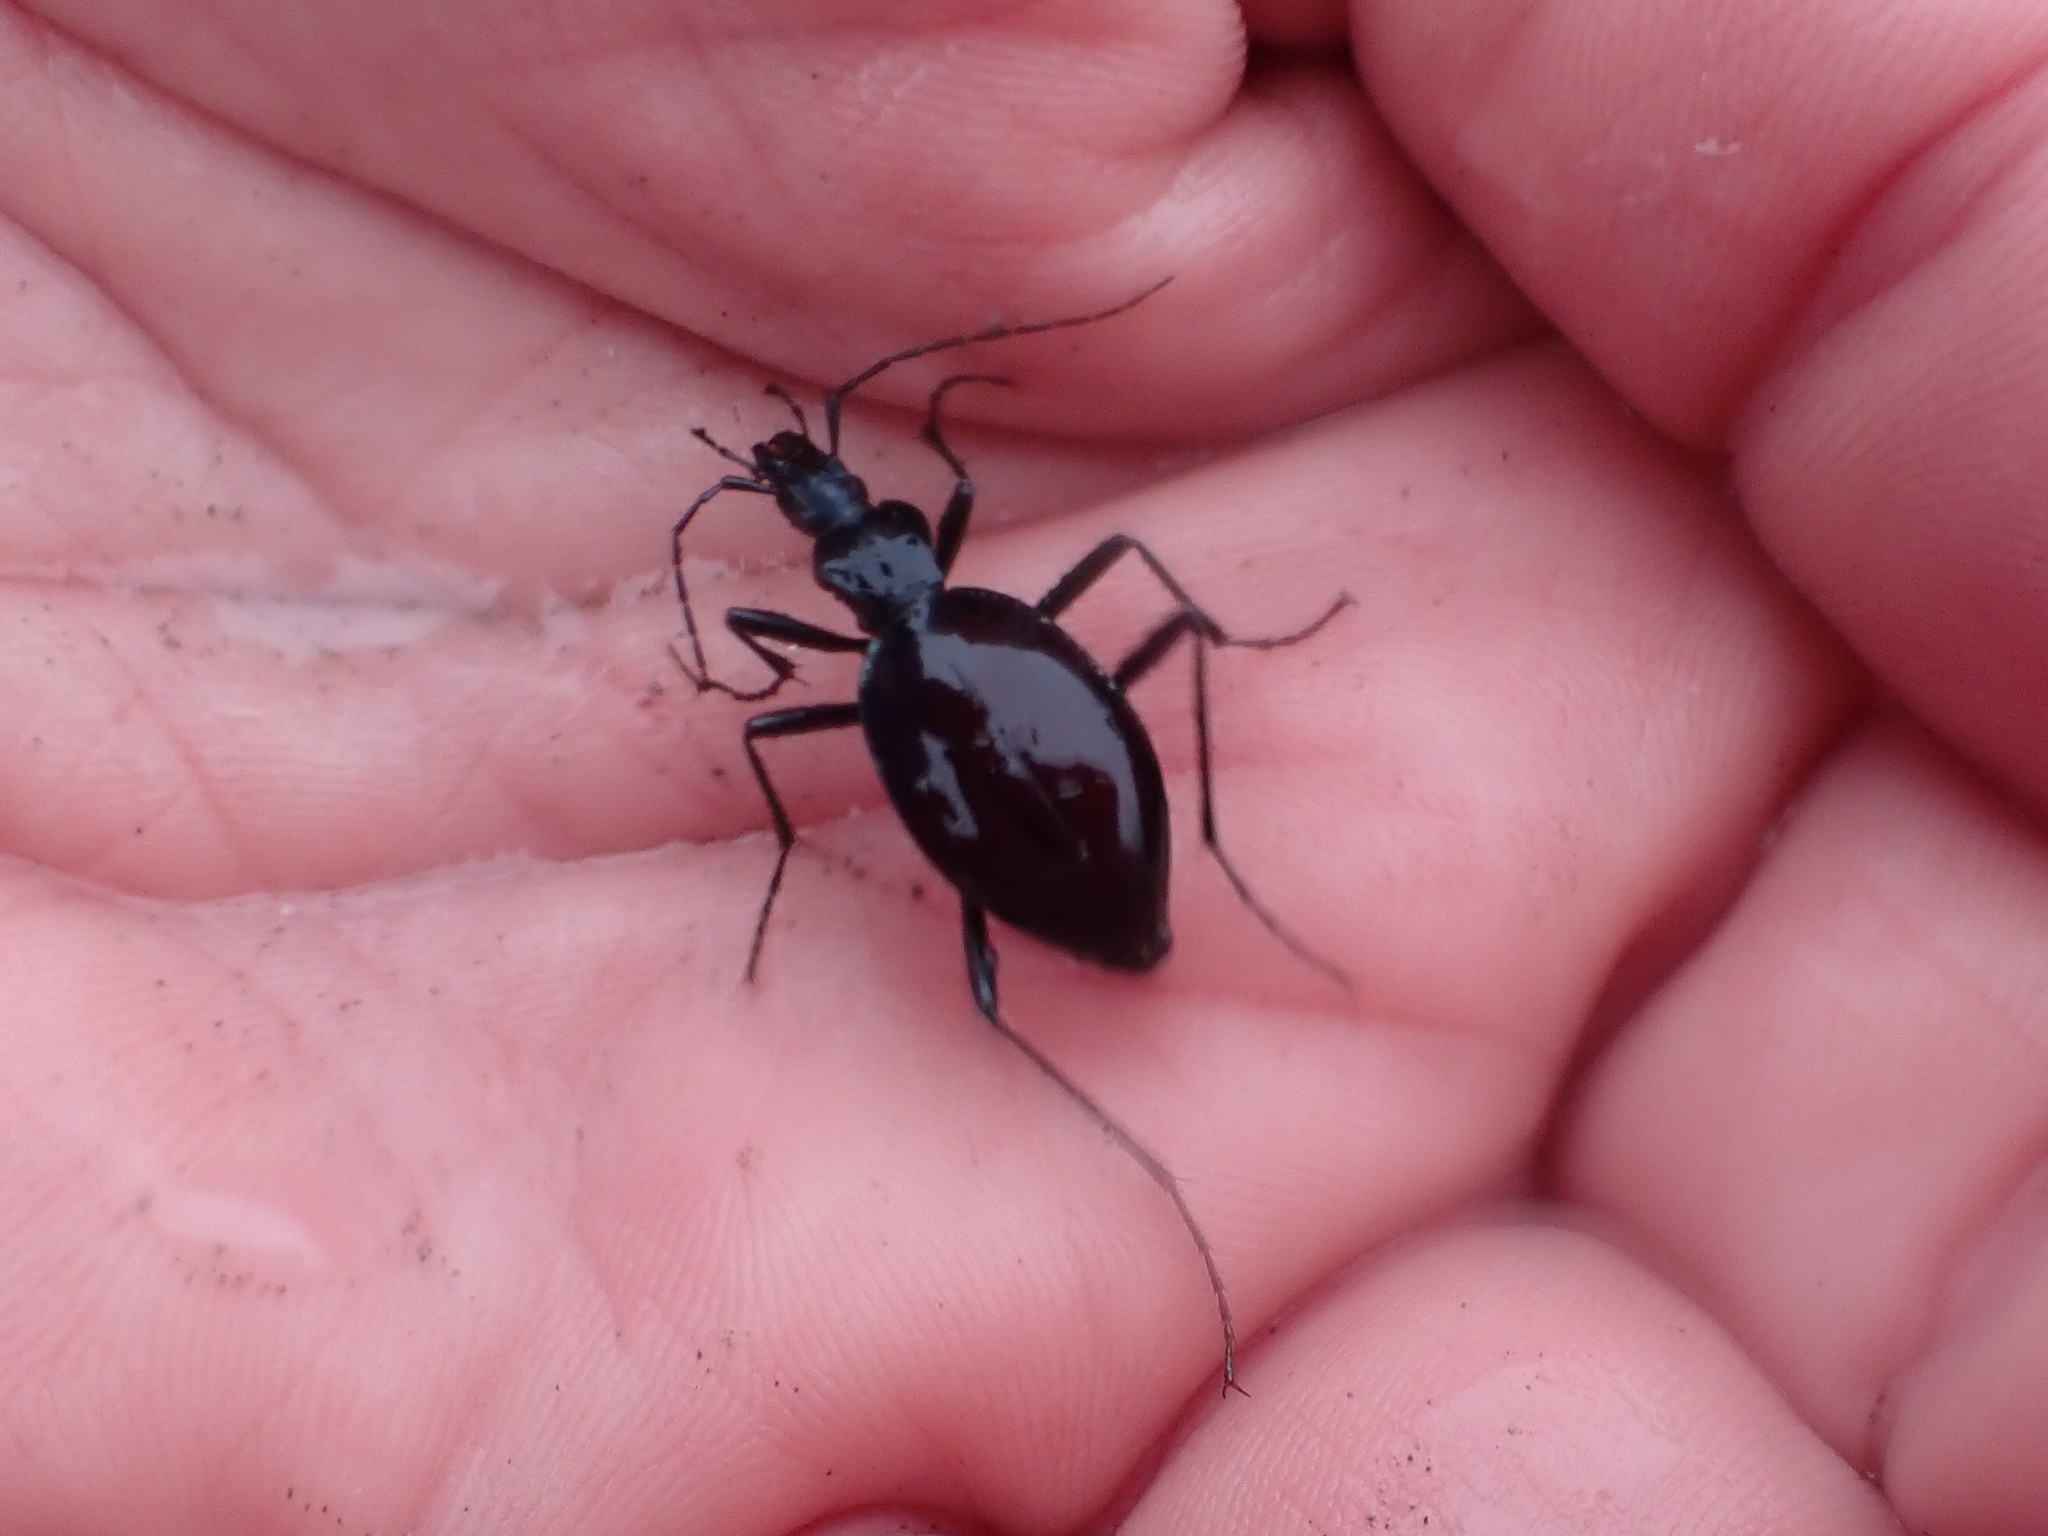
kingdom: Animalia
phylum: Arthropoda
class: Insecta
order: Coleoptera
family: Carabidae
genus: Scaphinotus
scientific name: Scaphinotus angusticollis
